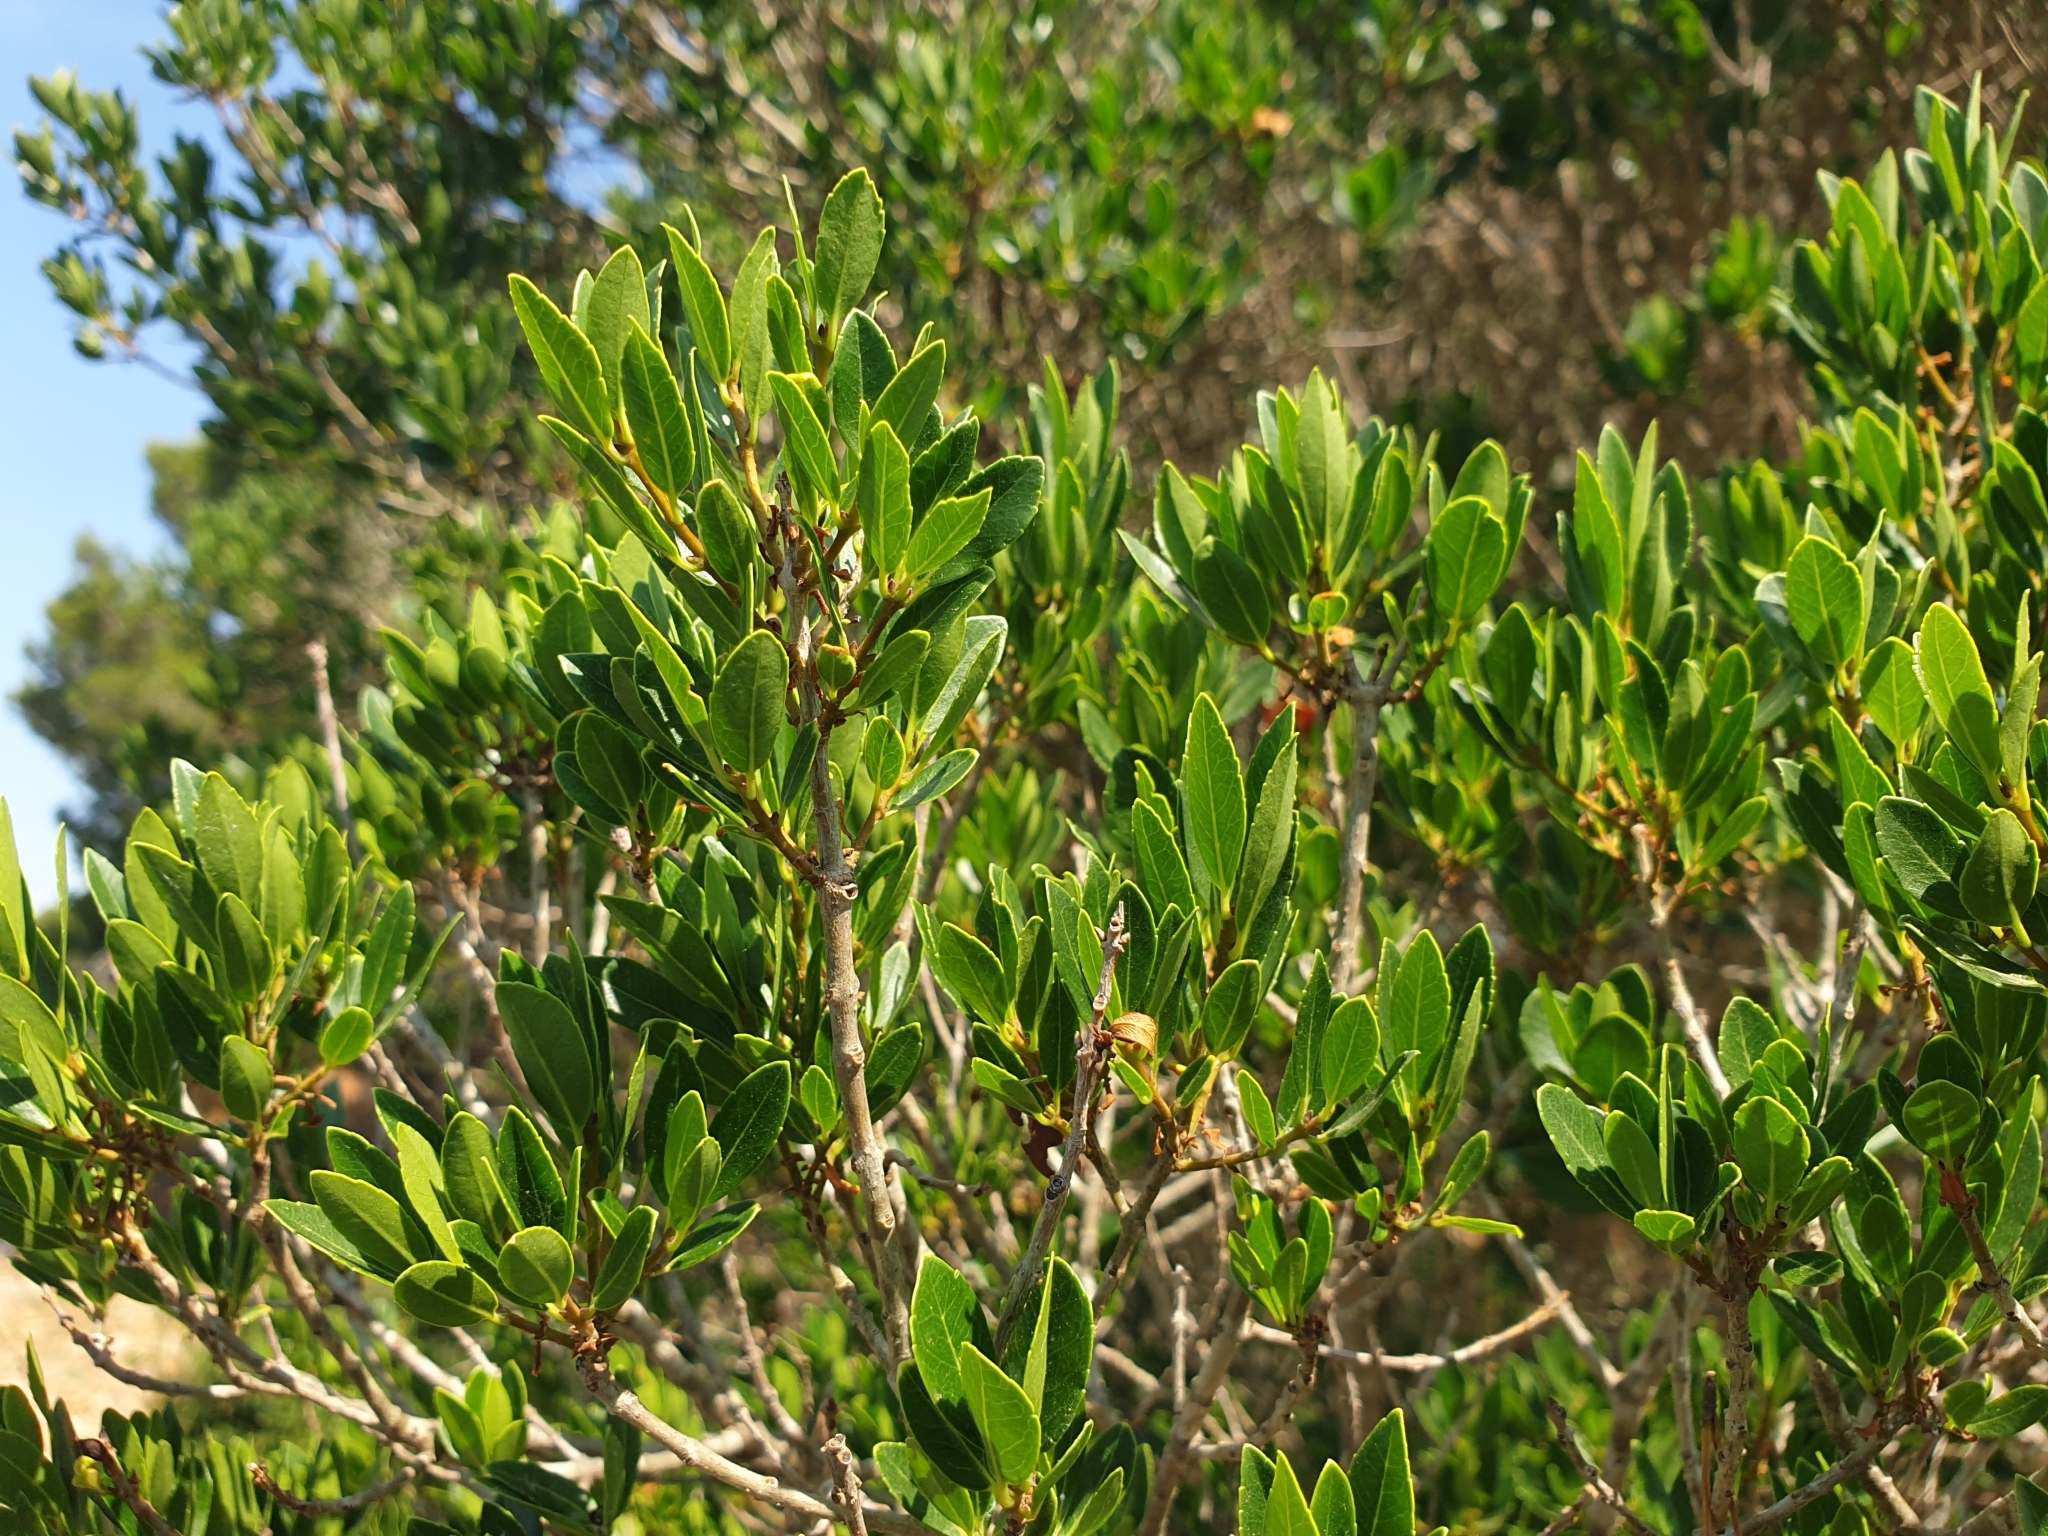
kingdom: Plantae
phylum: Tracheophyta
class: Magnoliopsida
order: Lamiales
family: Oleaceae
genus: Phillyrea
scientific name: Phillyrea latifolia
